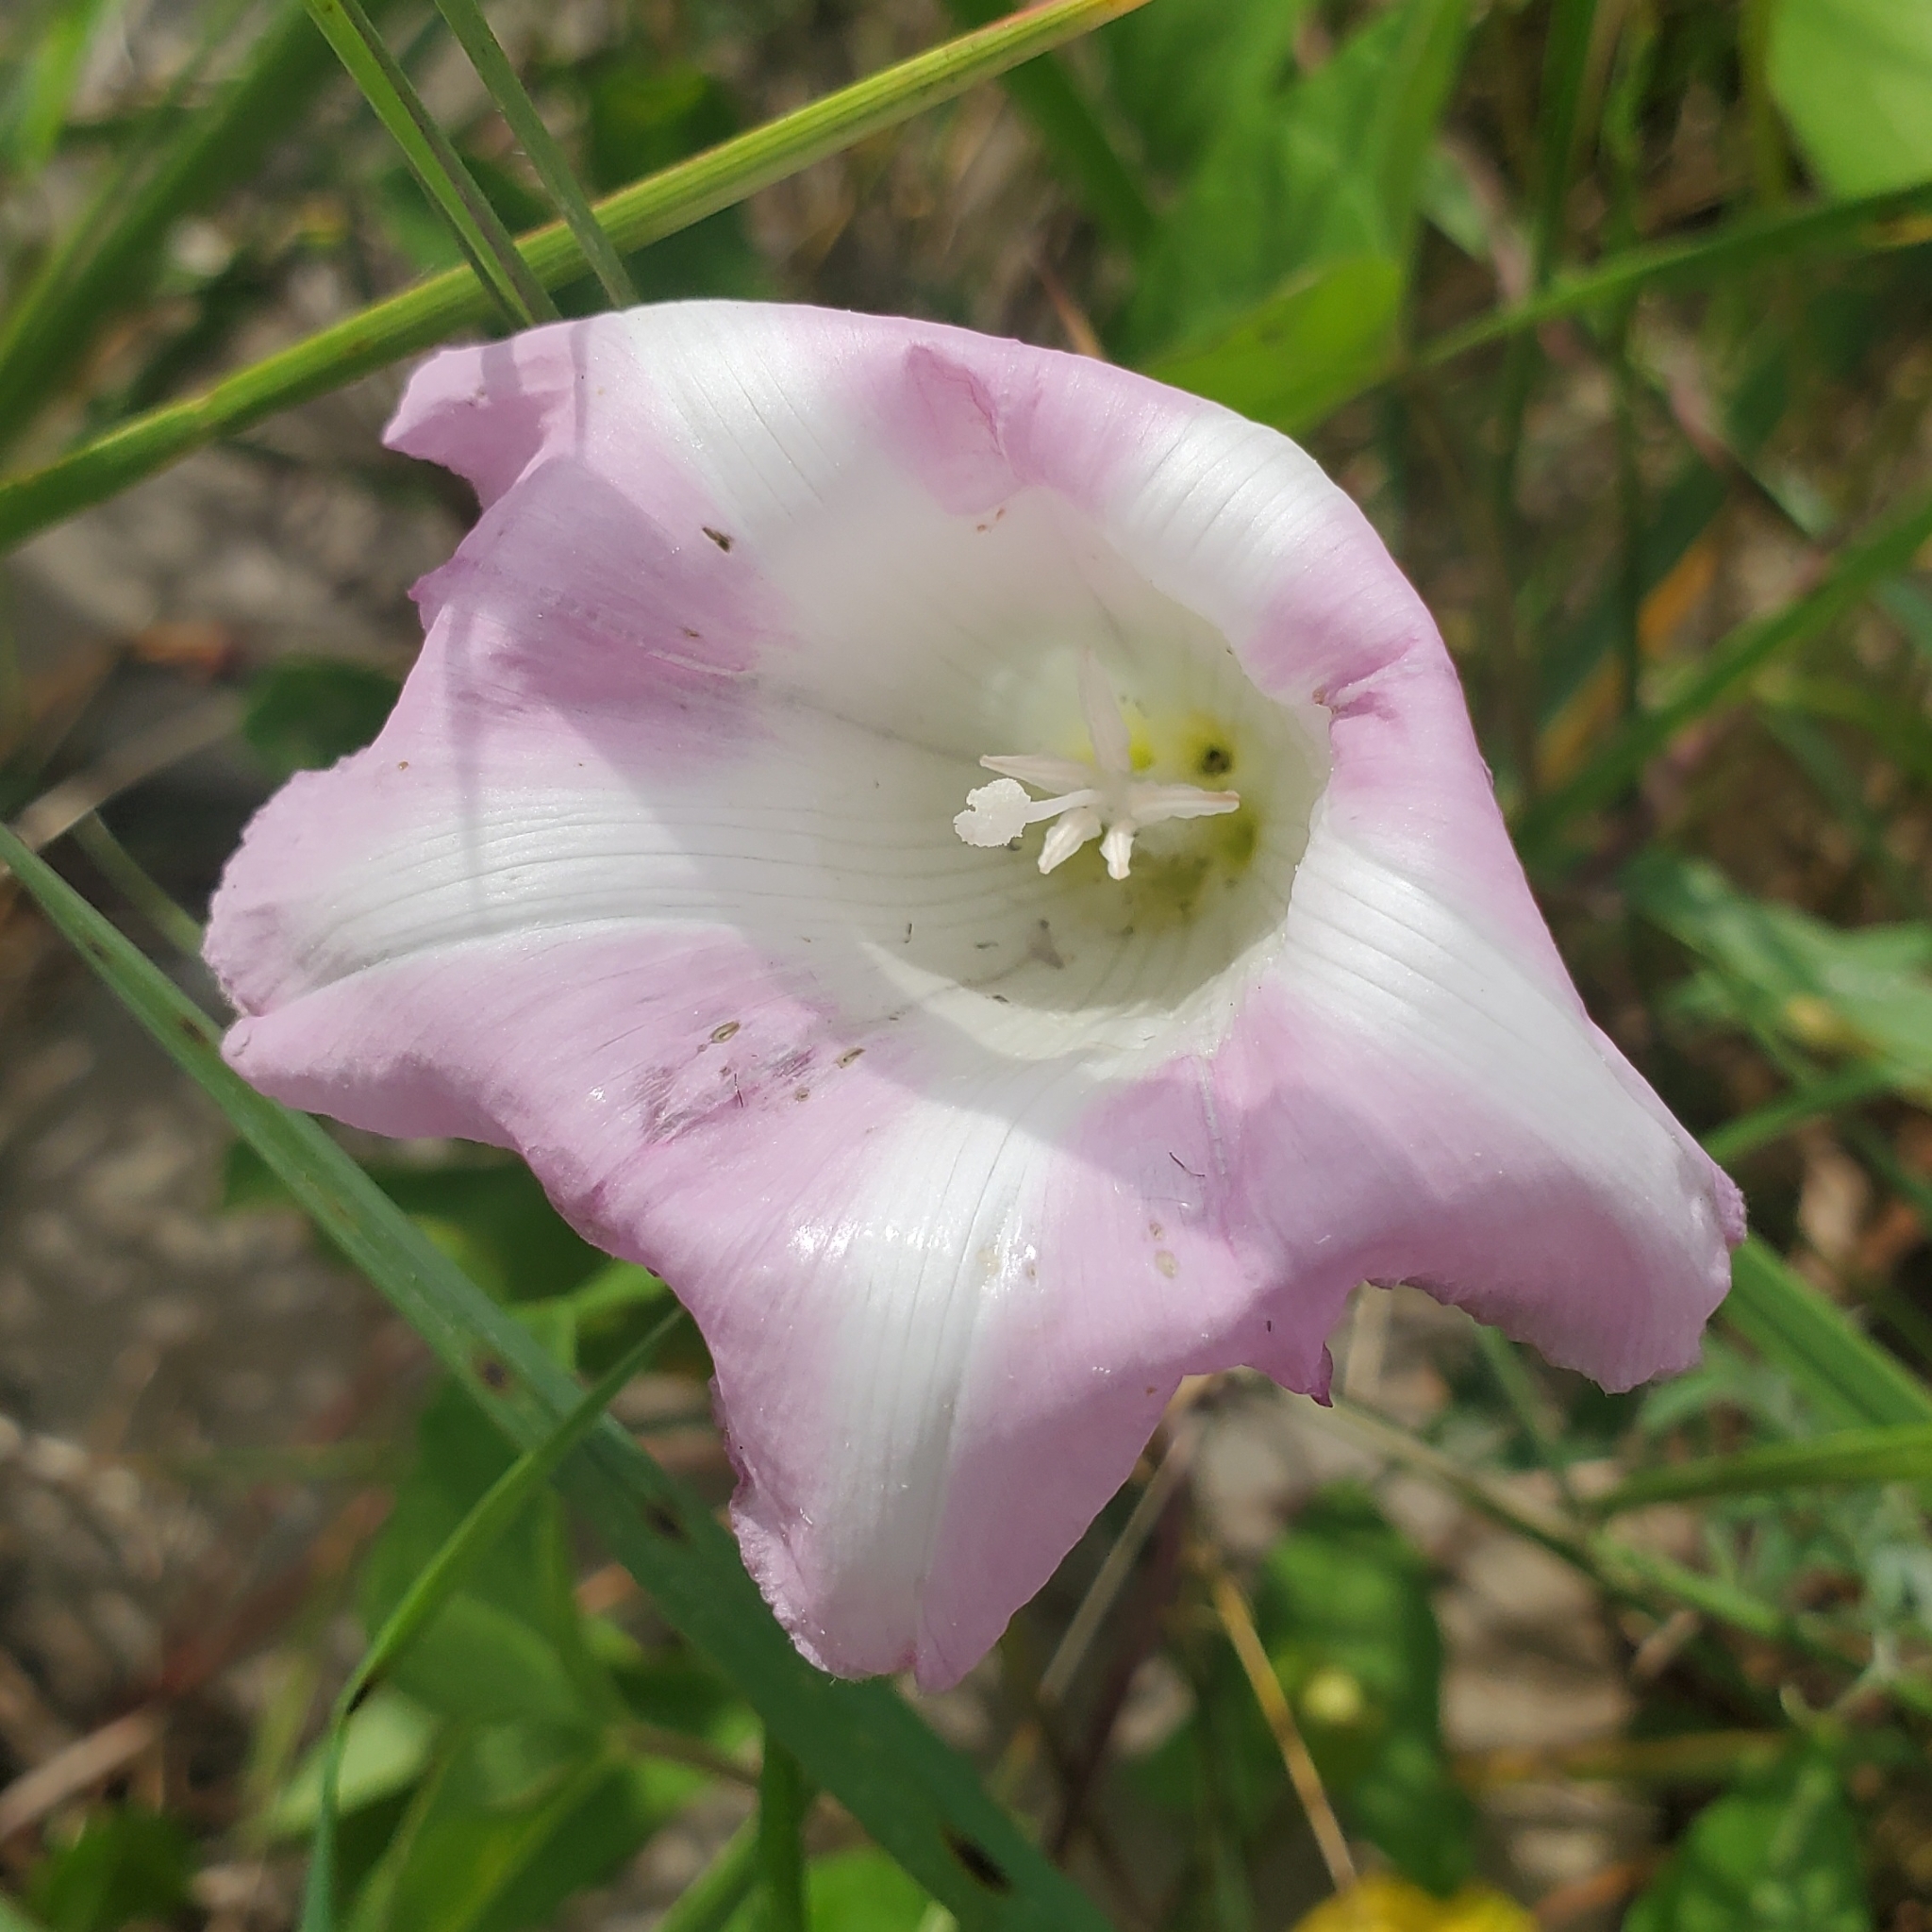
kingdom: Plantae
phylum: Tracheophyta
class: Magnoliopsida
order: Solanales
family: Convolvulaceae
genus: Calystegia
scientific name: Calystegia sepium
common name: Hedge bindweed
